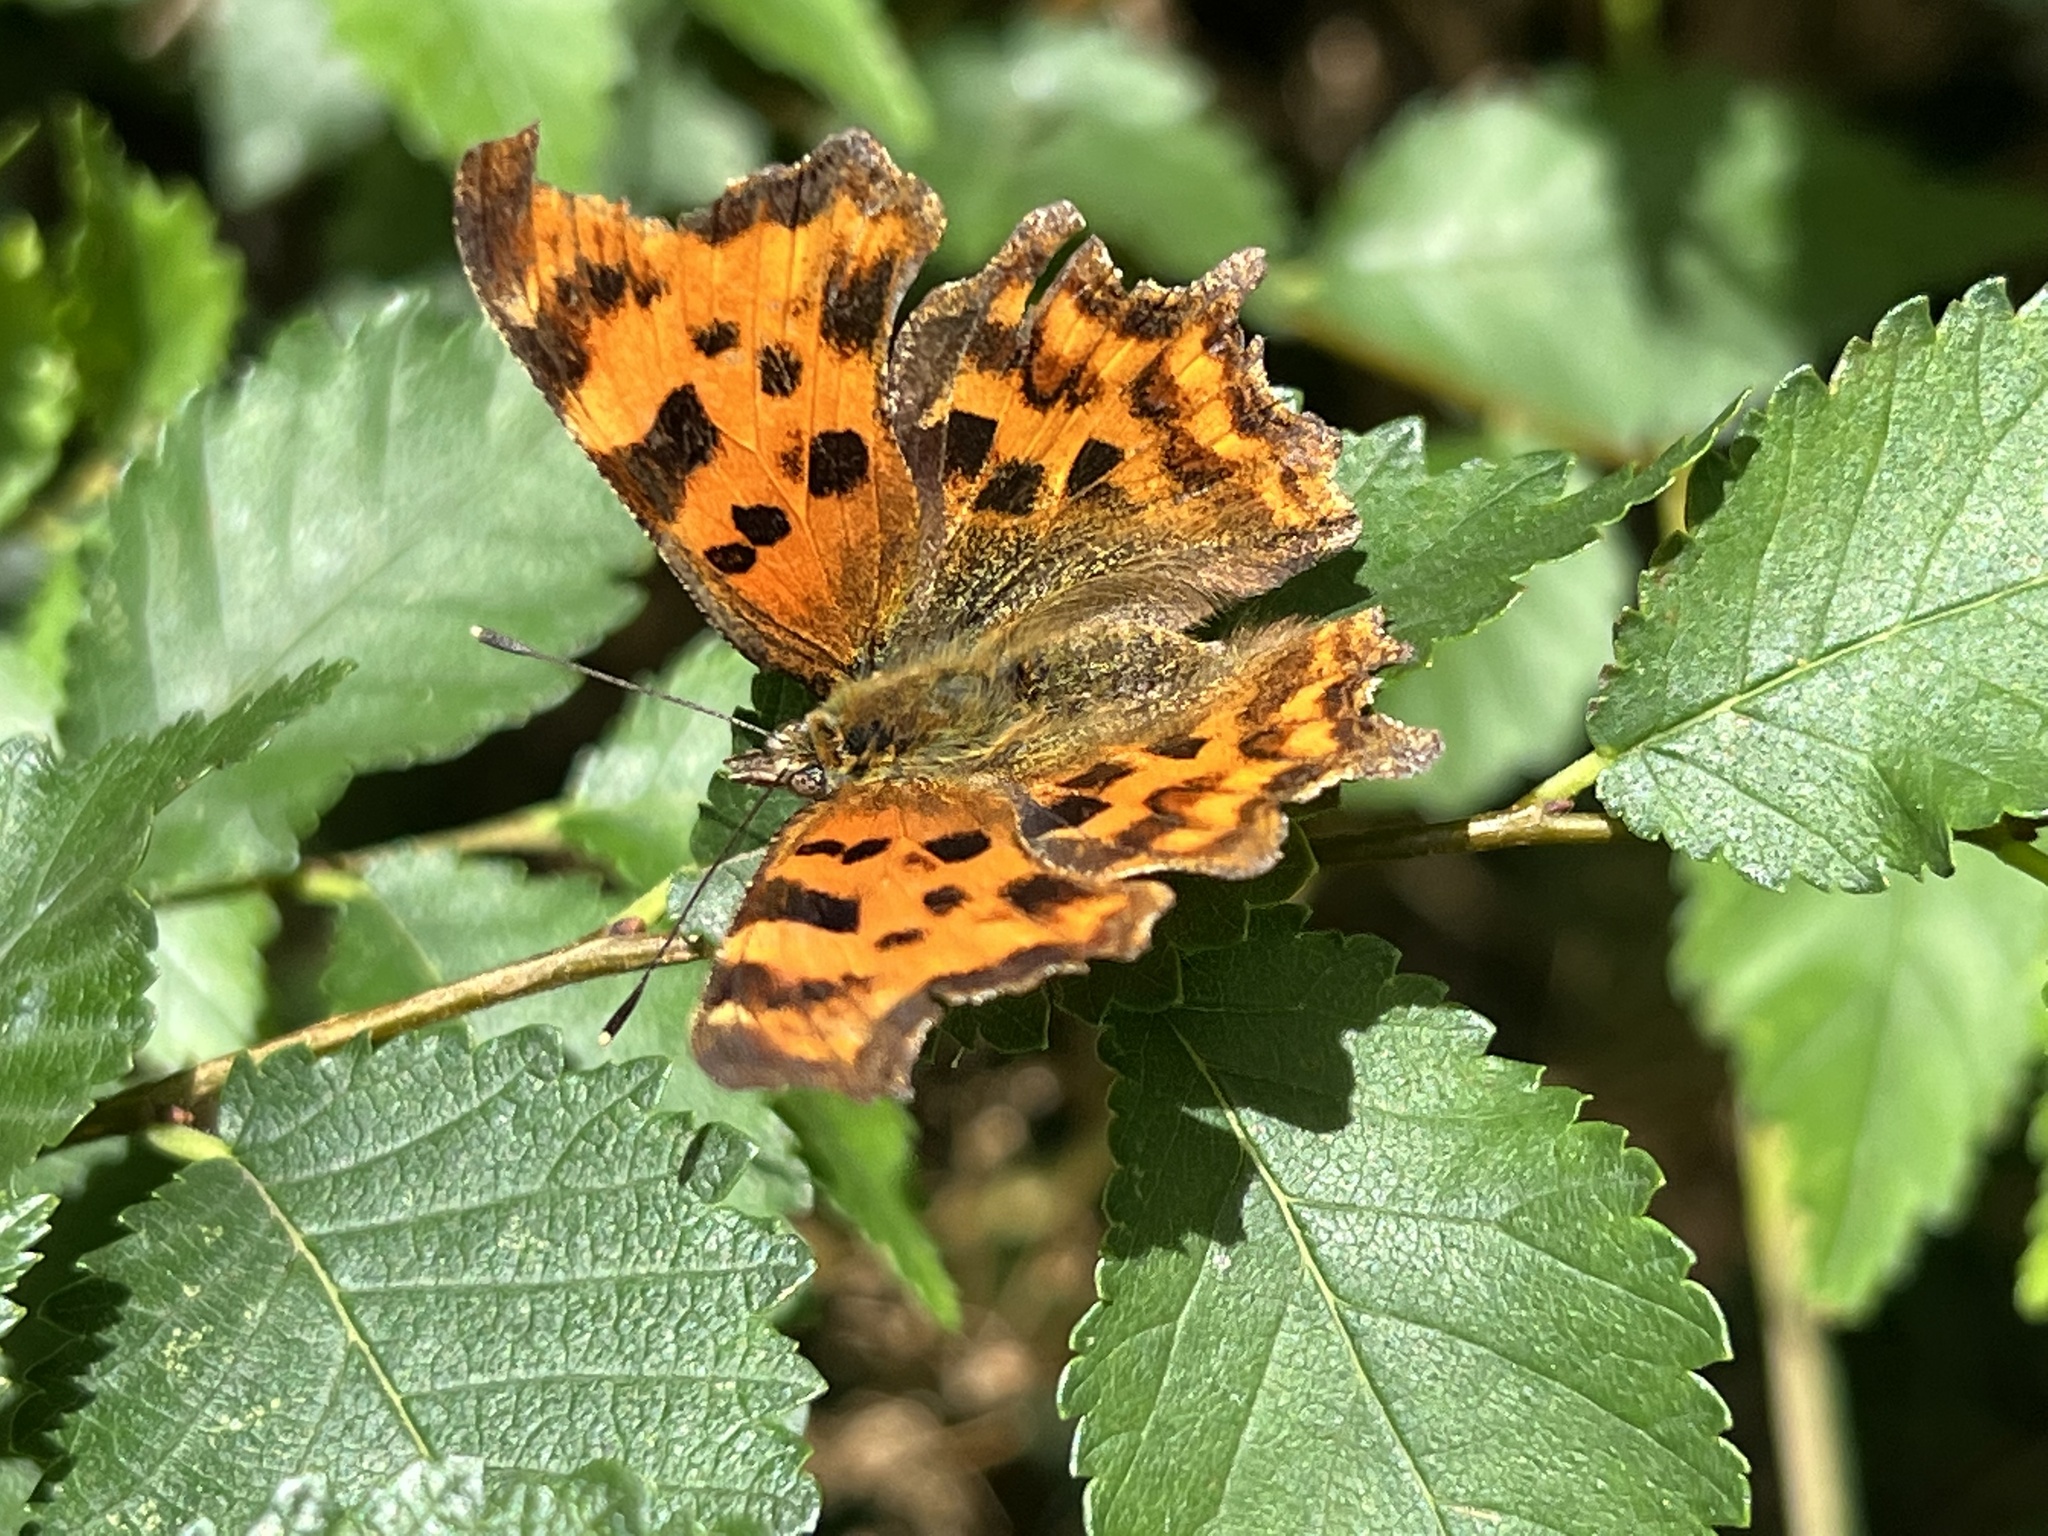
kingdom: Animalia
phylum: Arthropoda
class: Insecta
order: Lepidoptera
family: Nymphalidae
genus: Polygonia
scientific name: Polygonia c-album
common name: Comma
